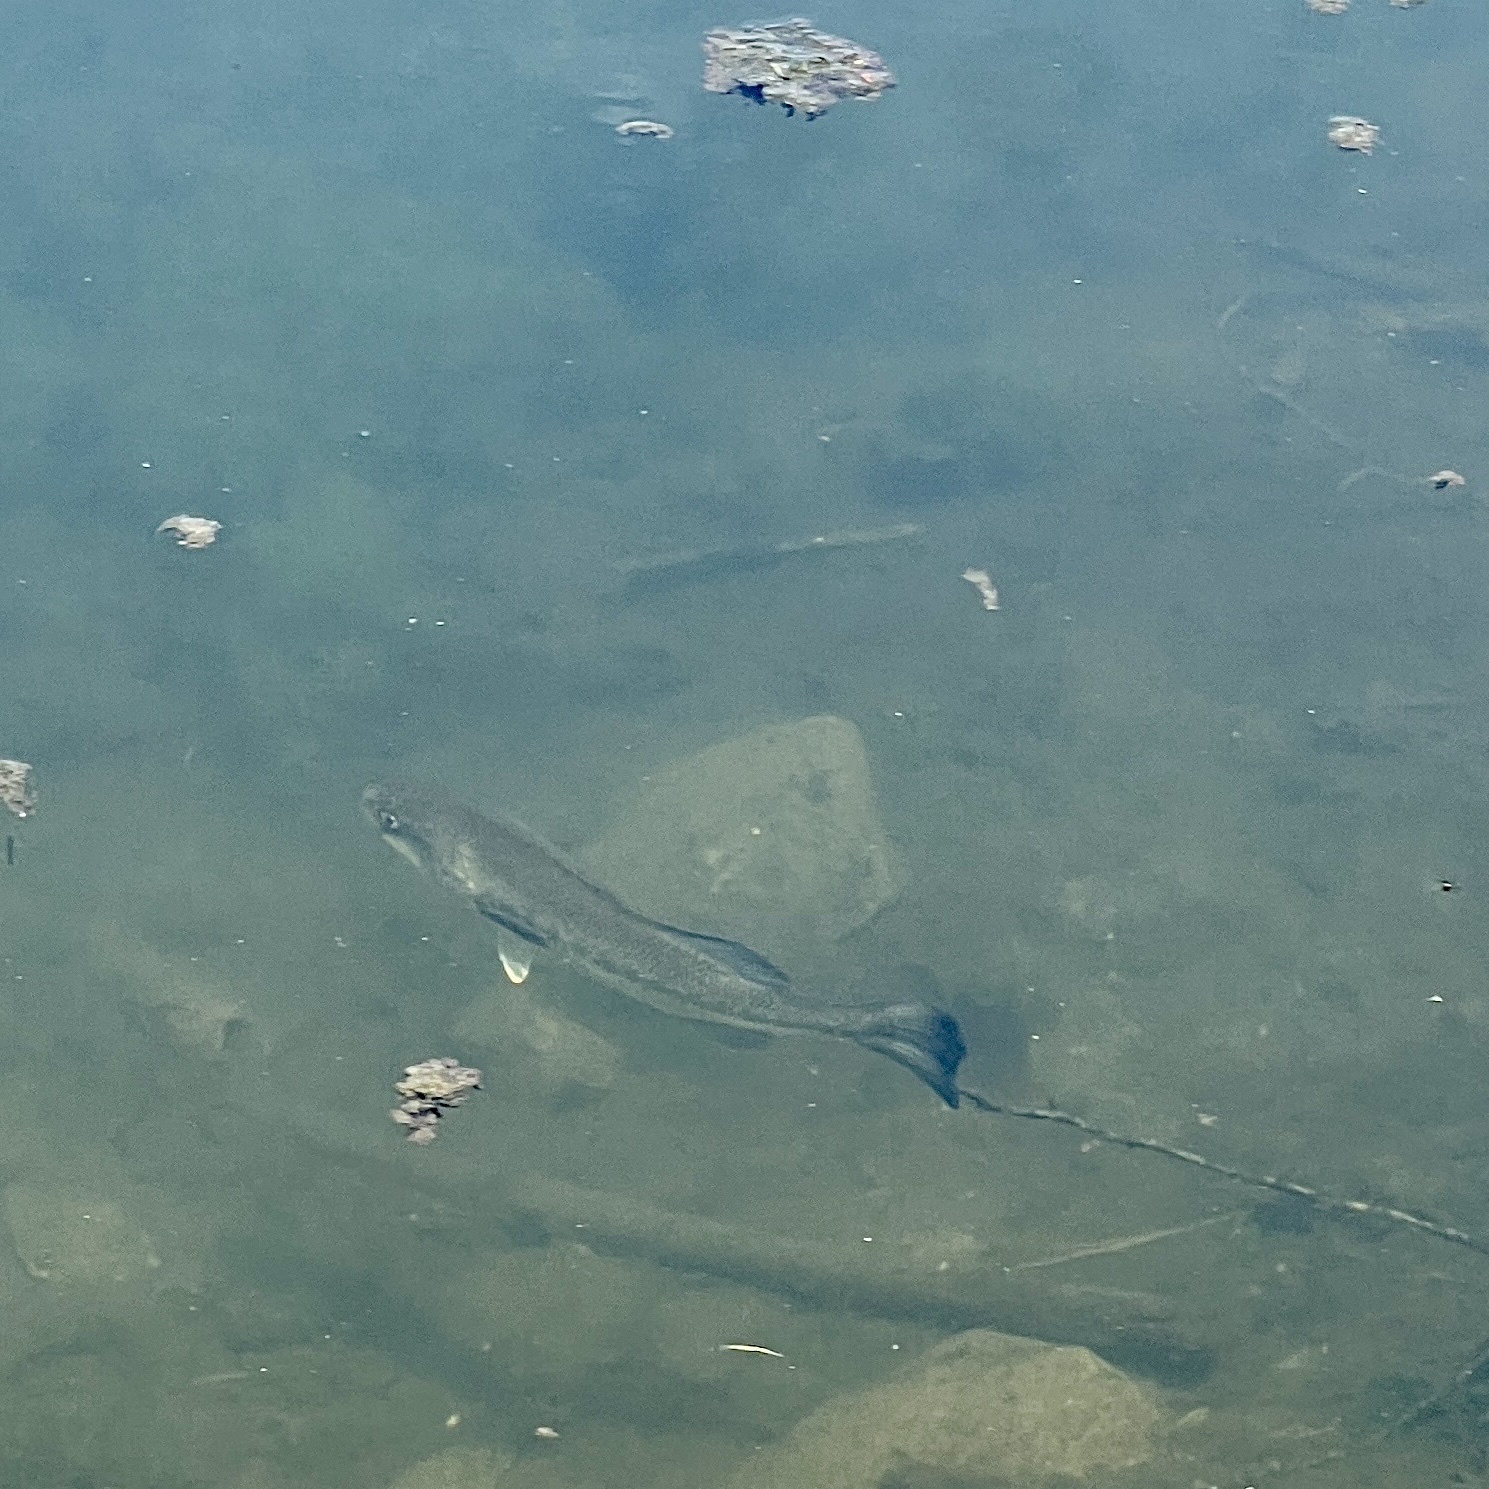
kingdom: Animalia
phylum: Chordata
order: Perciformes
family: Centrarchidae
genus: Micropterus
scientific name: Micropterus
